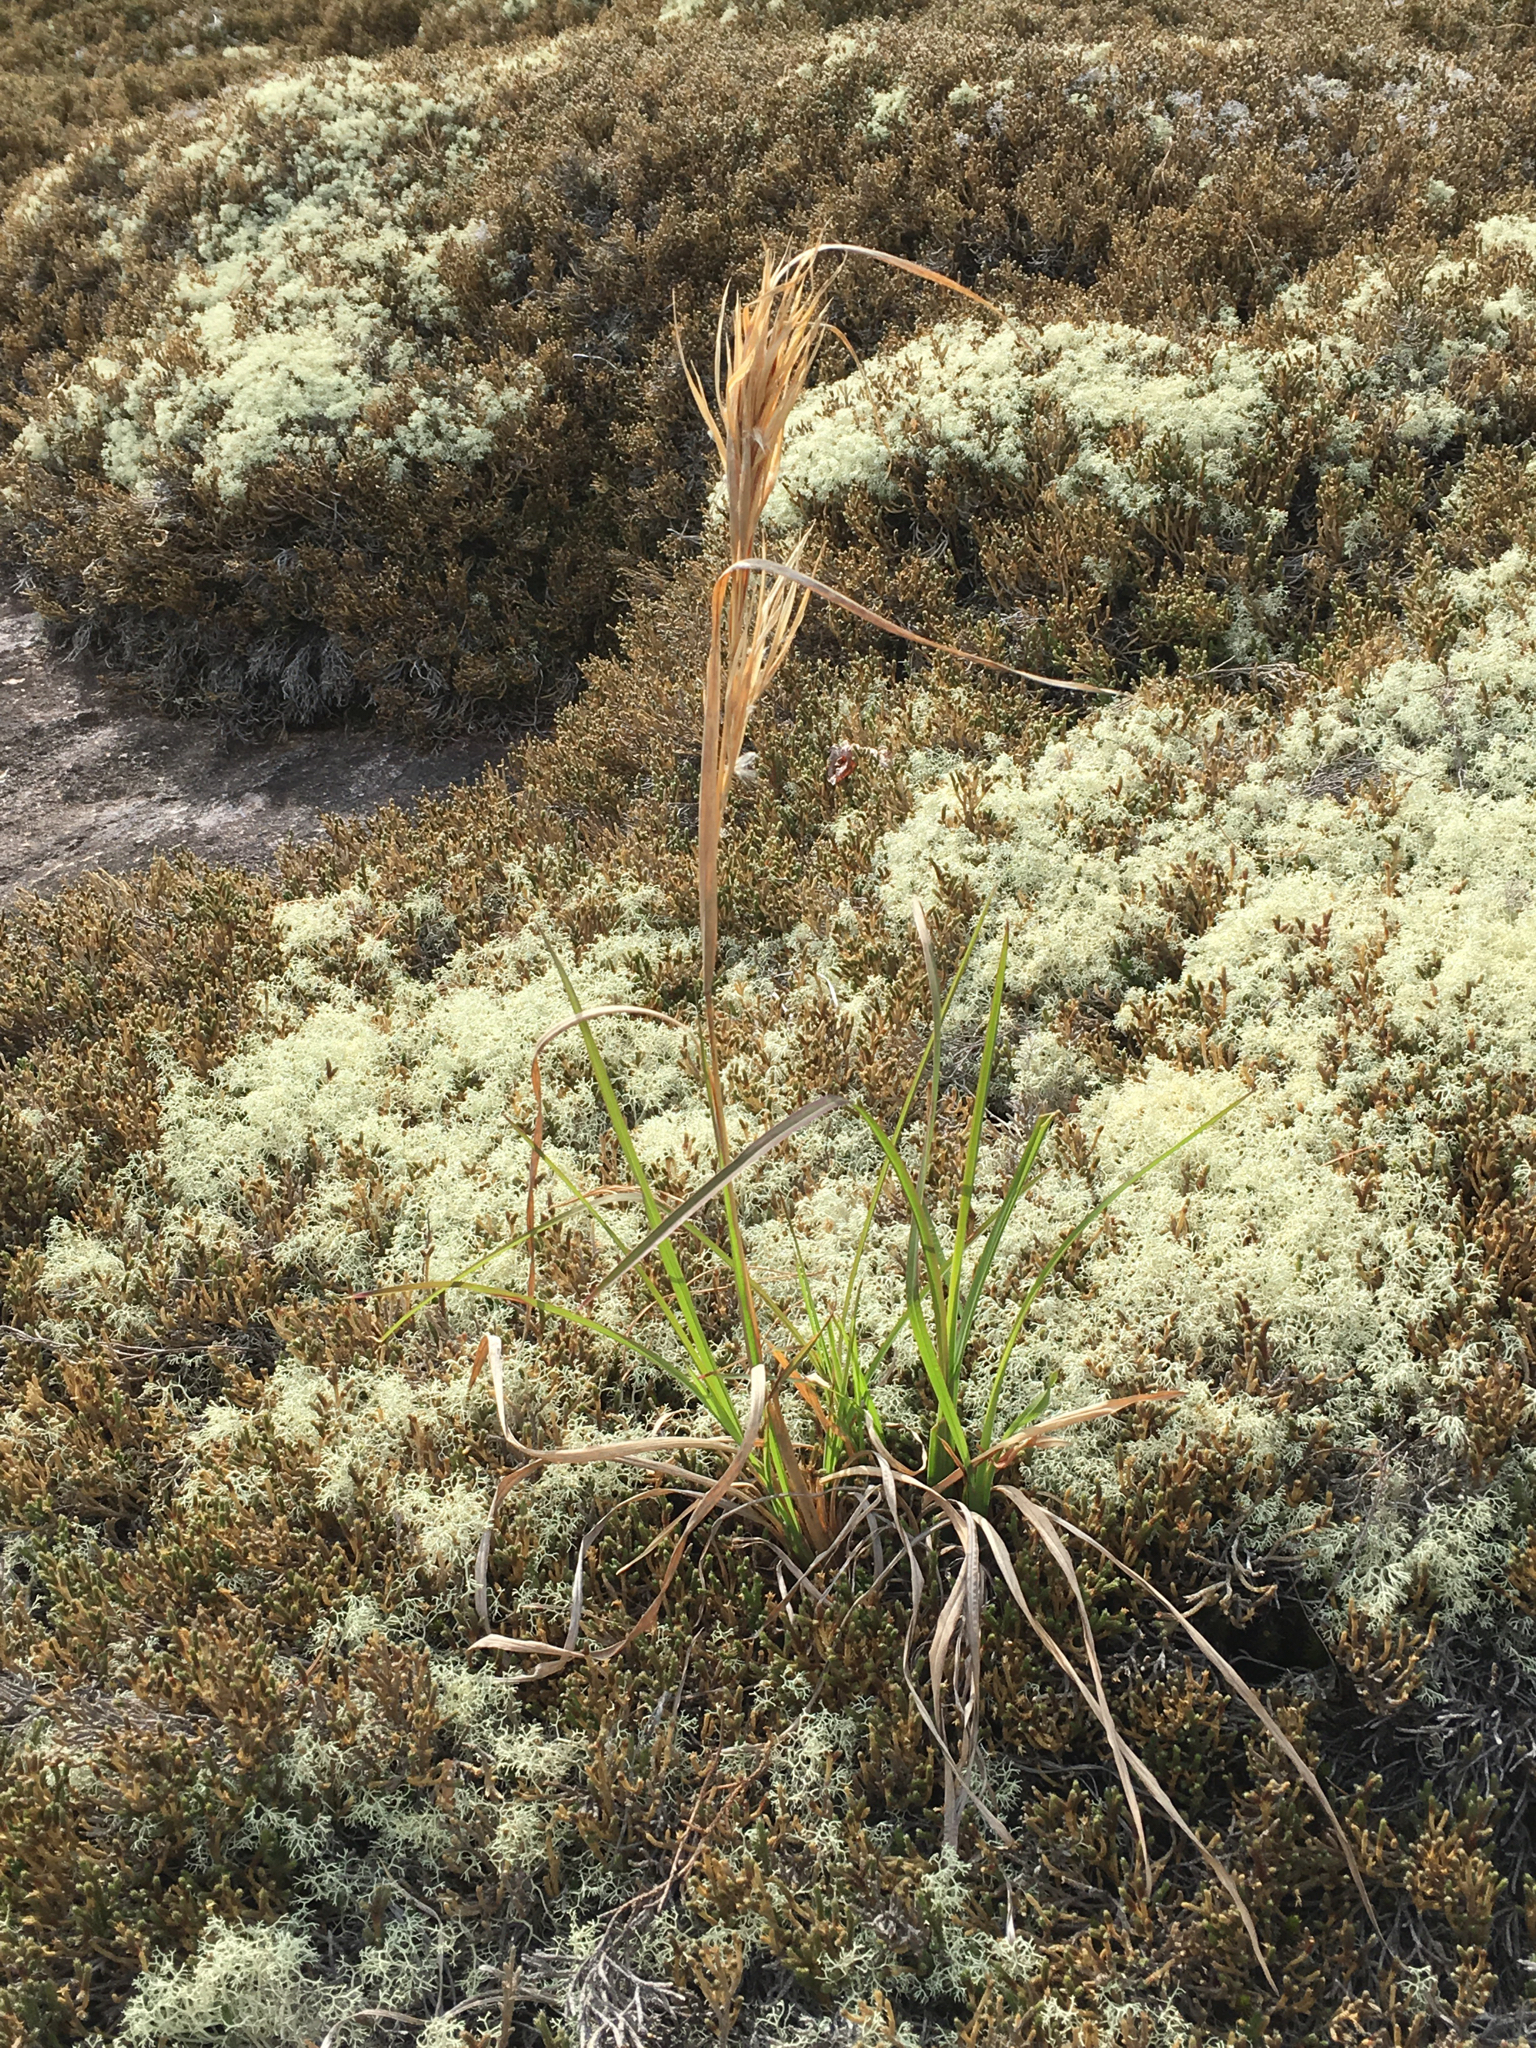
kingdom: Plantae
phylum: Tracheophyta
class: Lycopodiopsida
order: Selaginellales
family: Selaginellaceae
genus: Selaginella
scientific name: Selaginella tortipila
